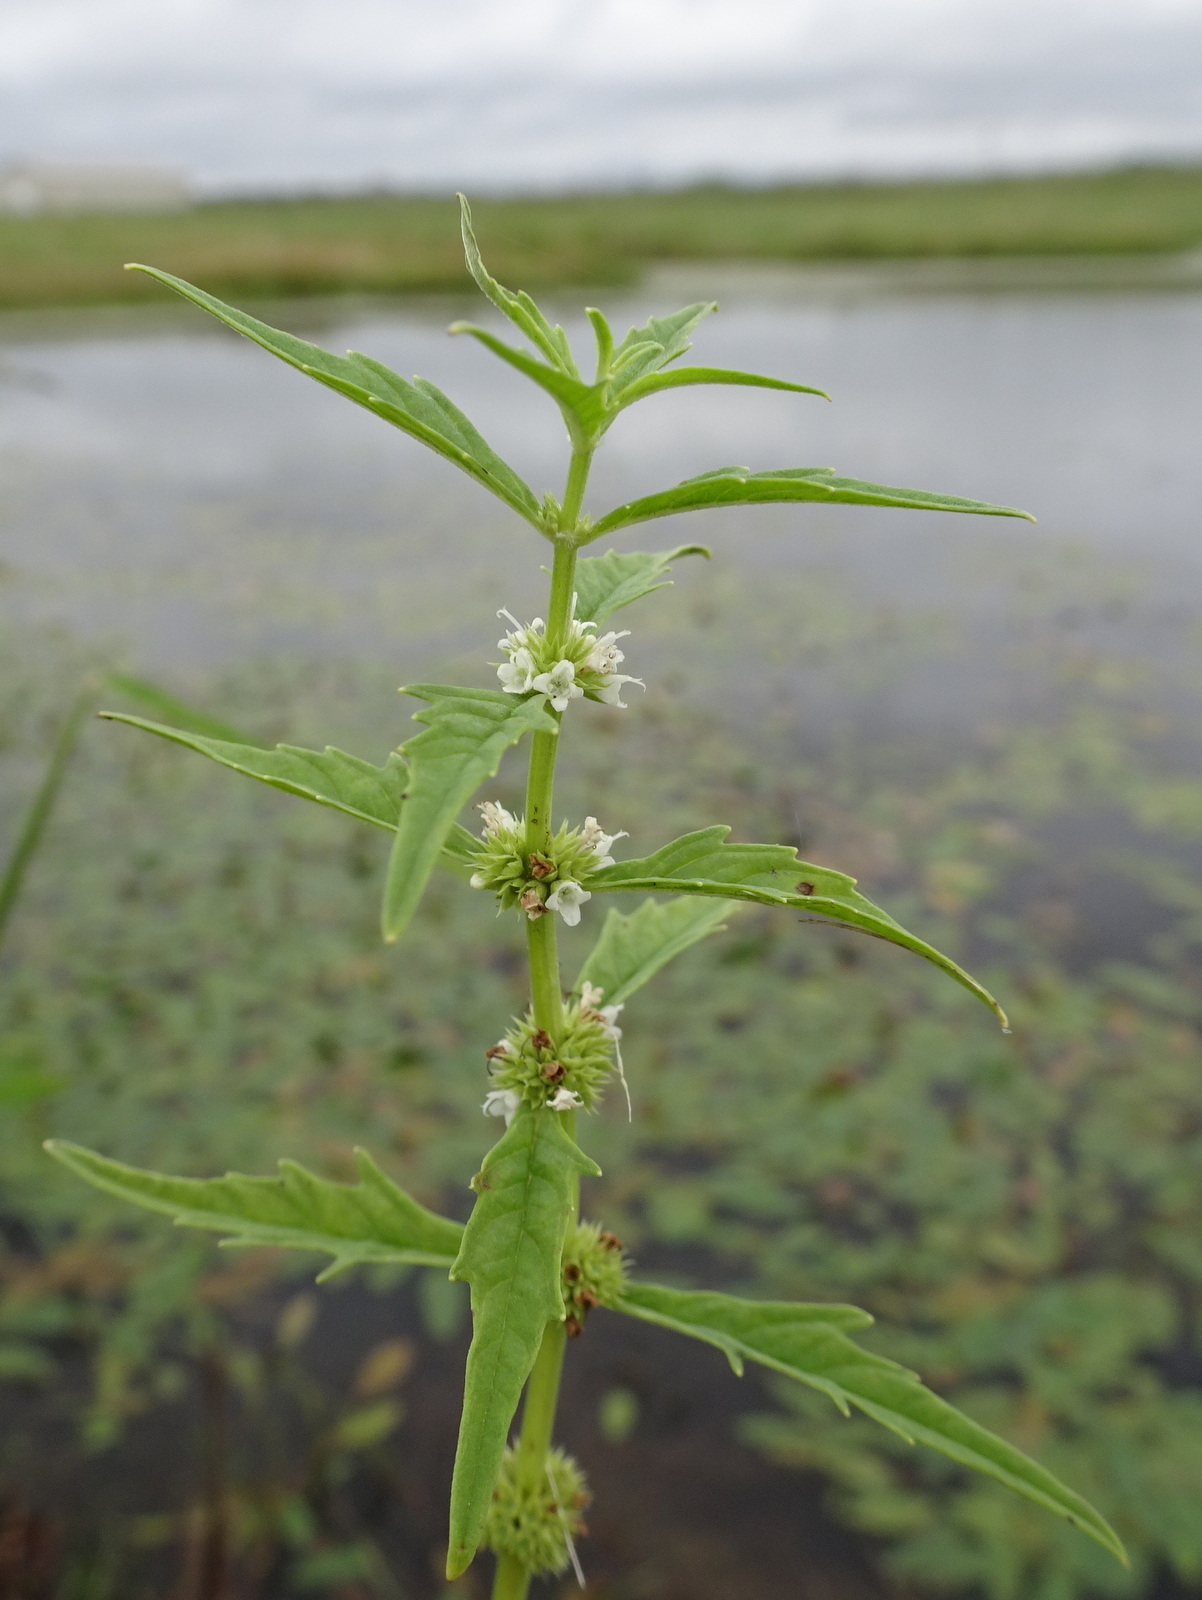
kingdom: Plantae
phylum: Tracheophyta
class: Magnoliopsida
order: Lamiales
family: Lamiaceae
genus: Lycopus
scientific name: Lycopus americanus
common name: American bugleweed
